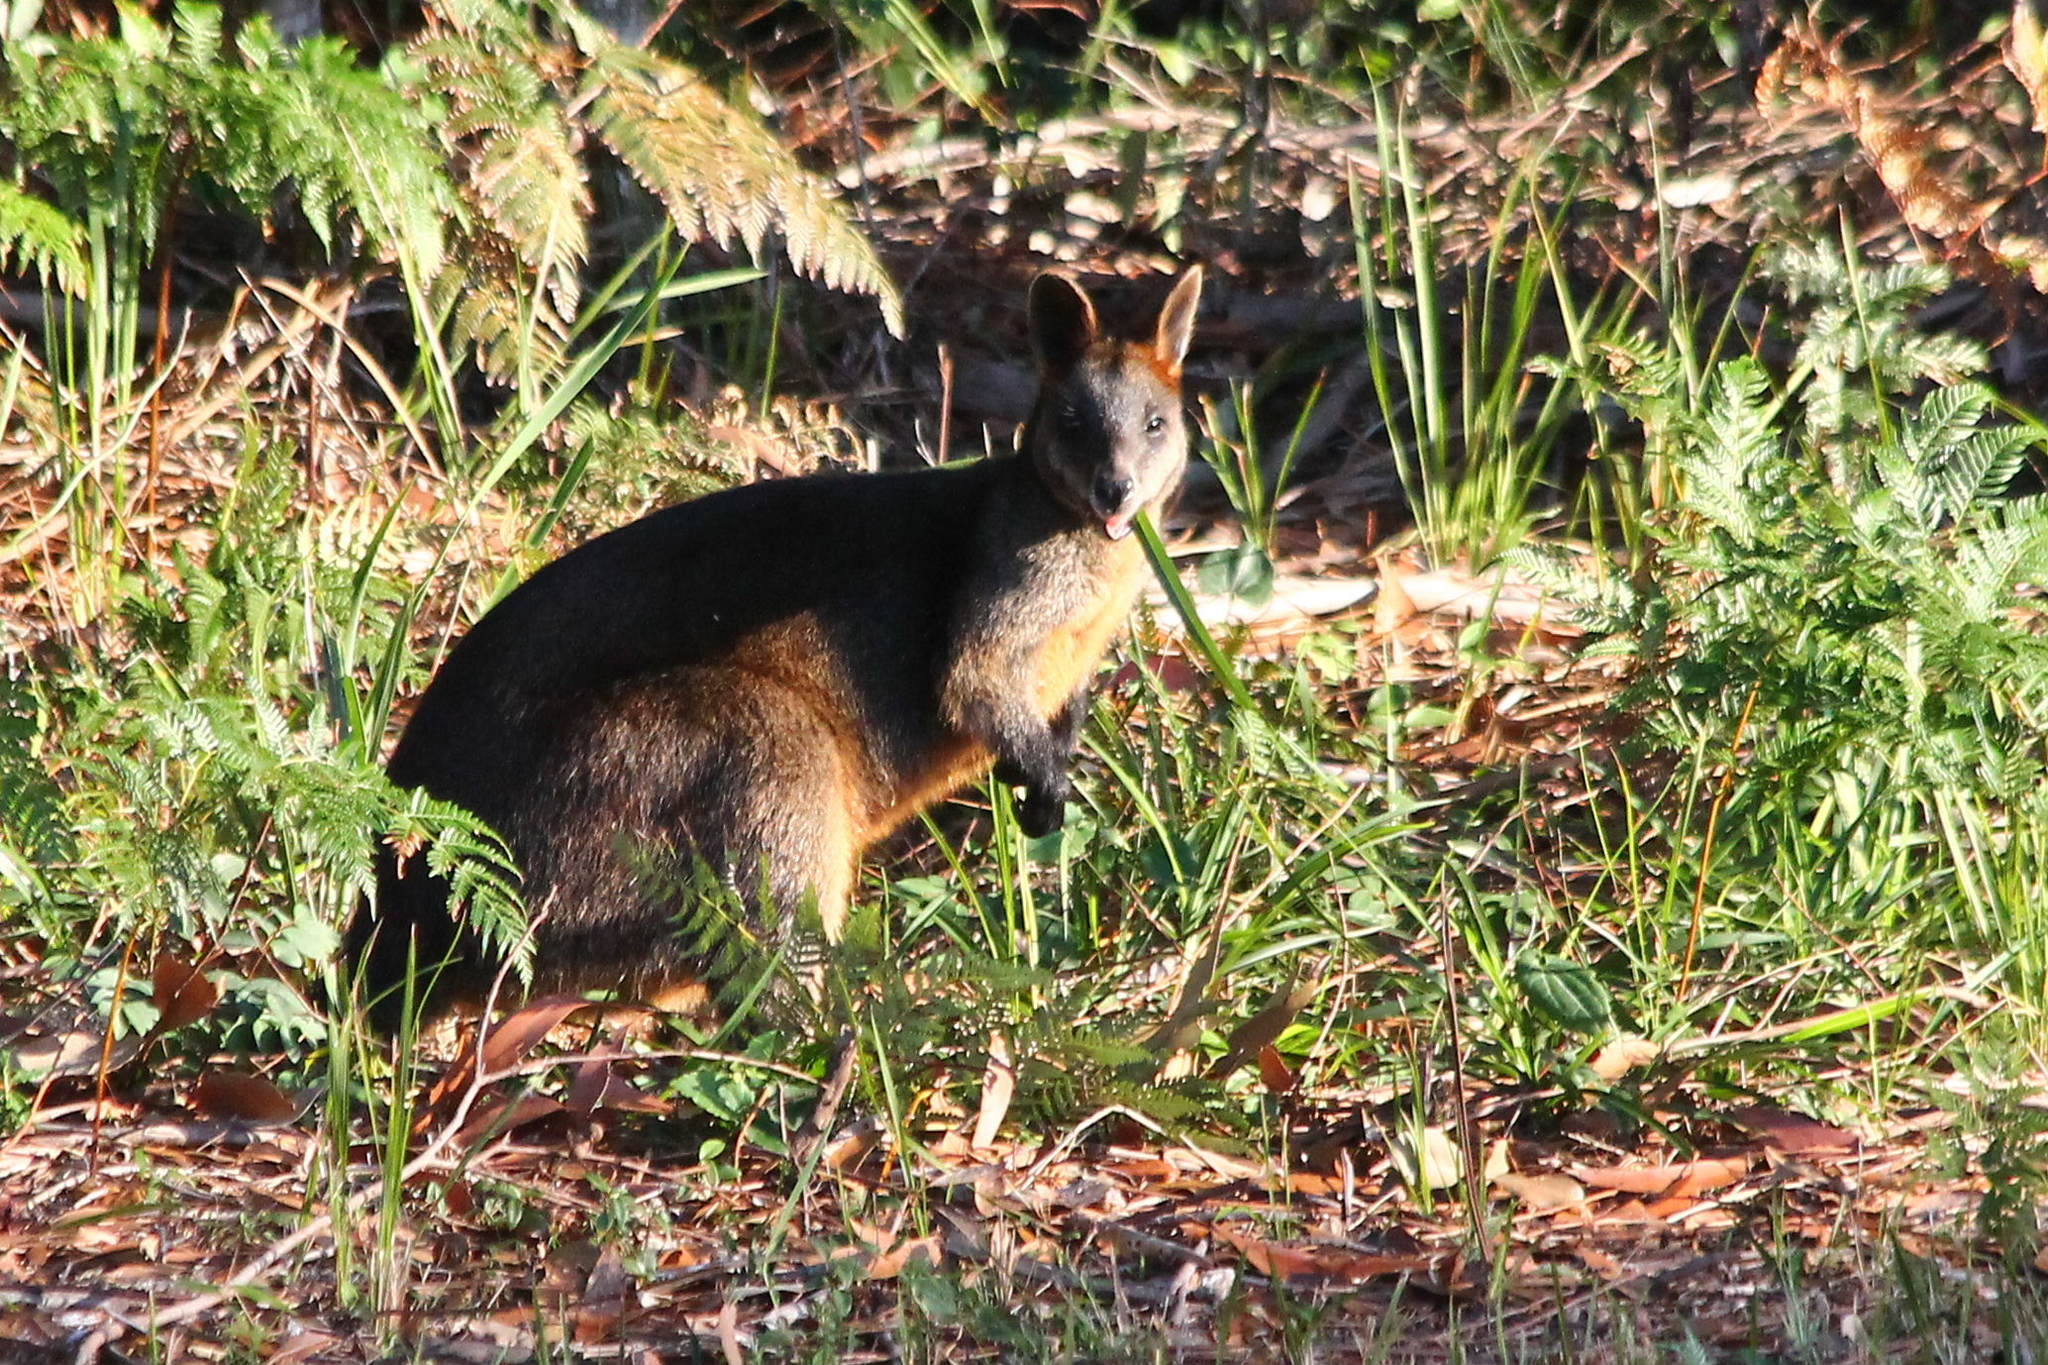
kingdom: Animalia
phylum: Chordata
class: Mammalia
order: Diprotodontia
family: Macropodidae
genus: Wallabia
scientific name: Wallabia bicolor
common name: Swamp wallaby
